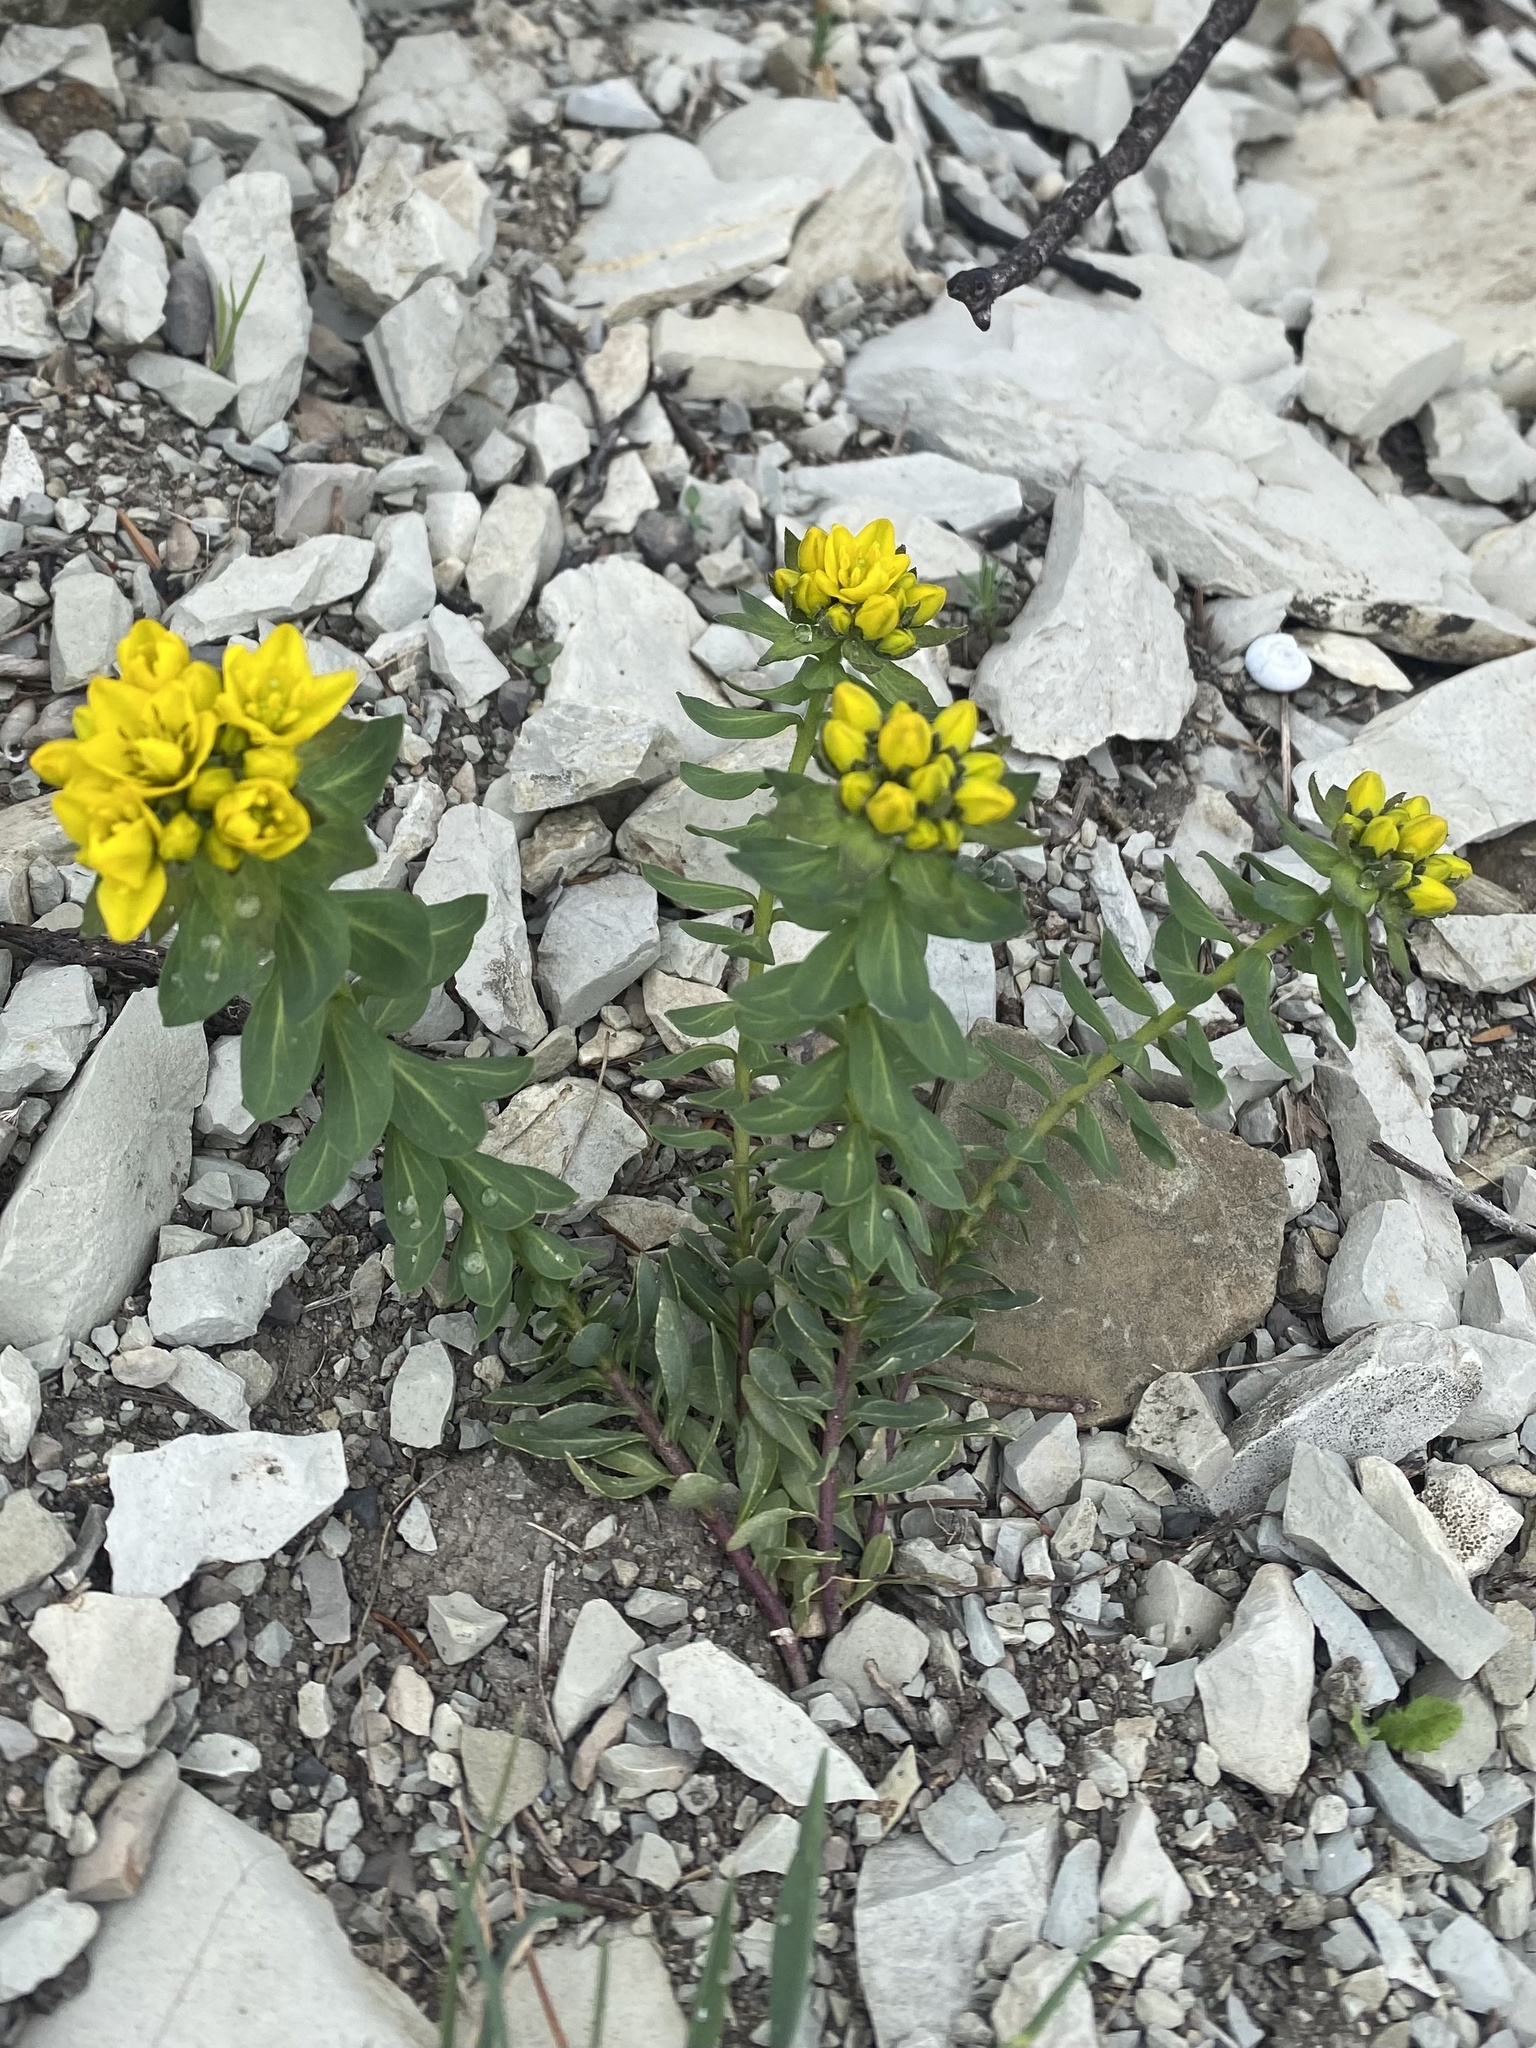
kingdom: Plantae
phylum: Tracheophyta
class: Magnoliopsida
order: Sapindales
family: Rutaceae
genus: Haplophyllum
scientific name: Haplophyllum suaveolens
